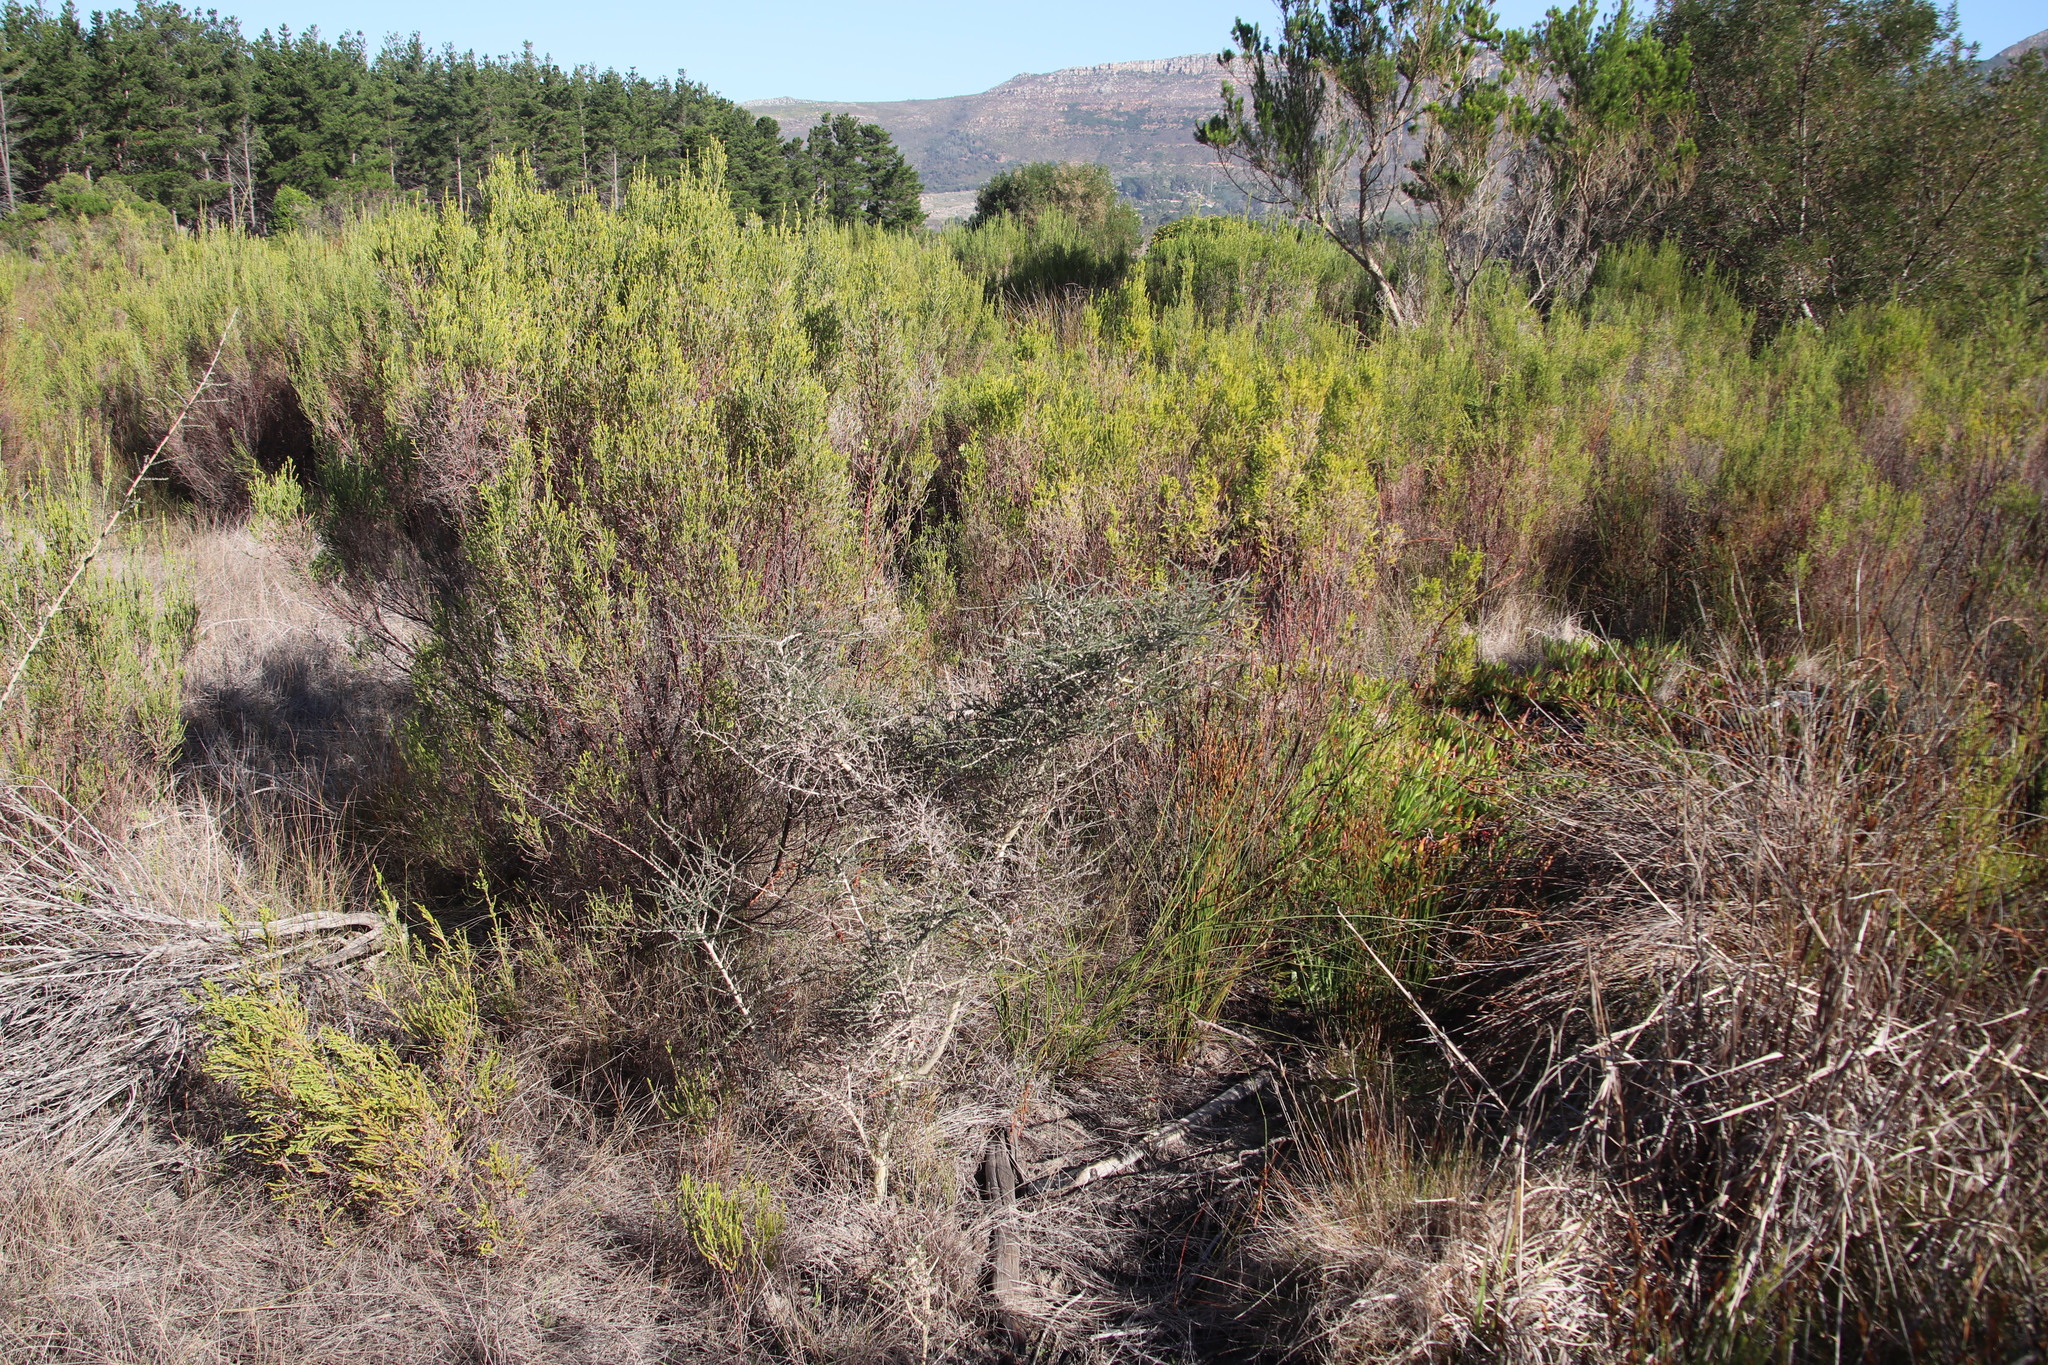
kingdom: Plantae
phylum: Tracheophyta
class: Magnoliopsida
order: Fabales
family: Fabaceae
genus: Aspalathus
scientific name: Aspalathus hispida
